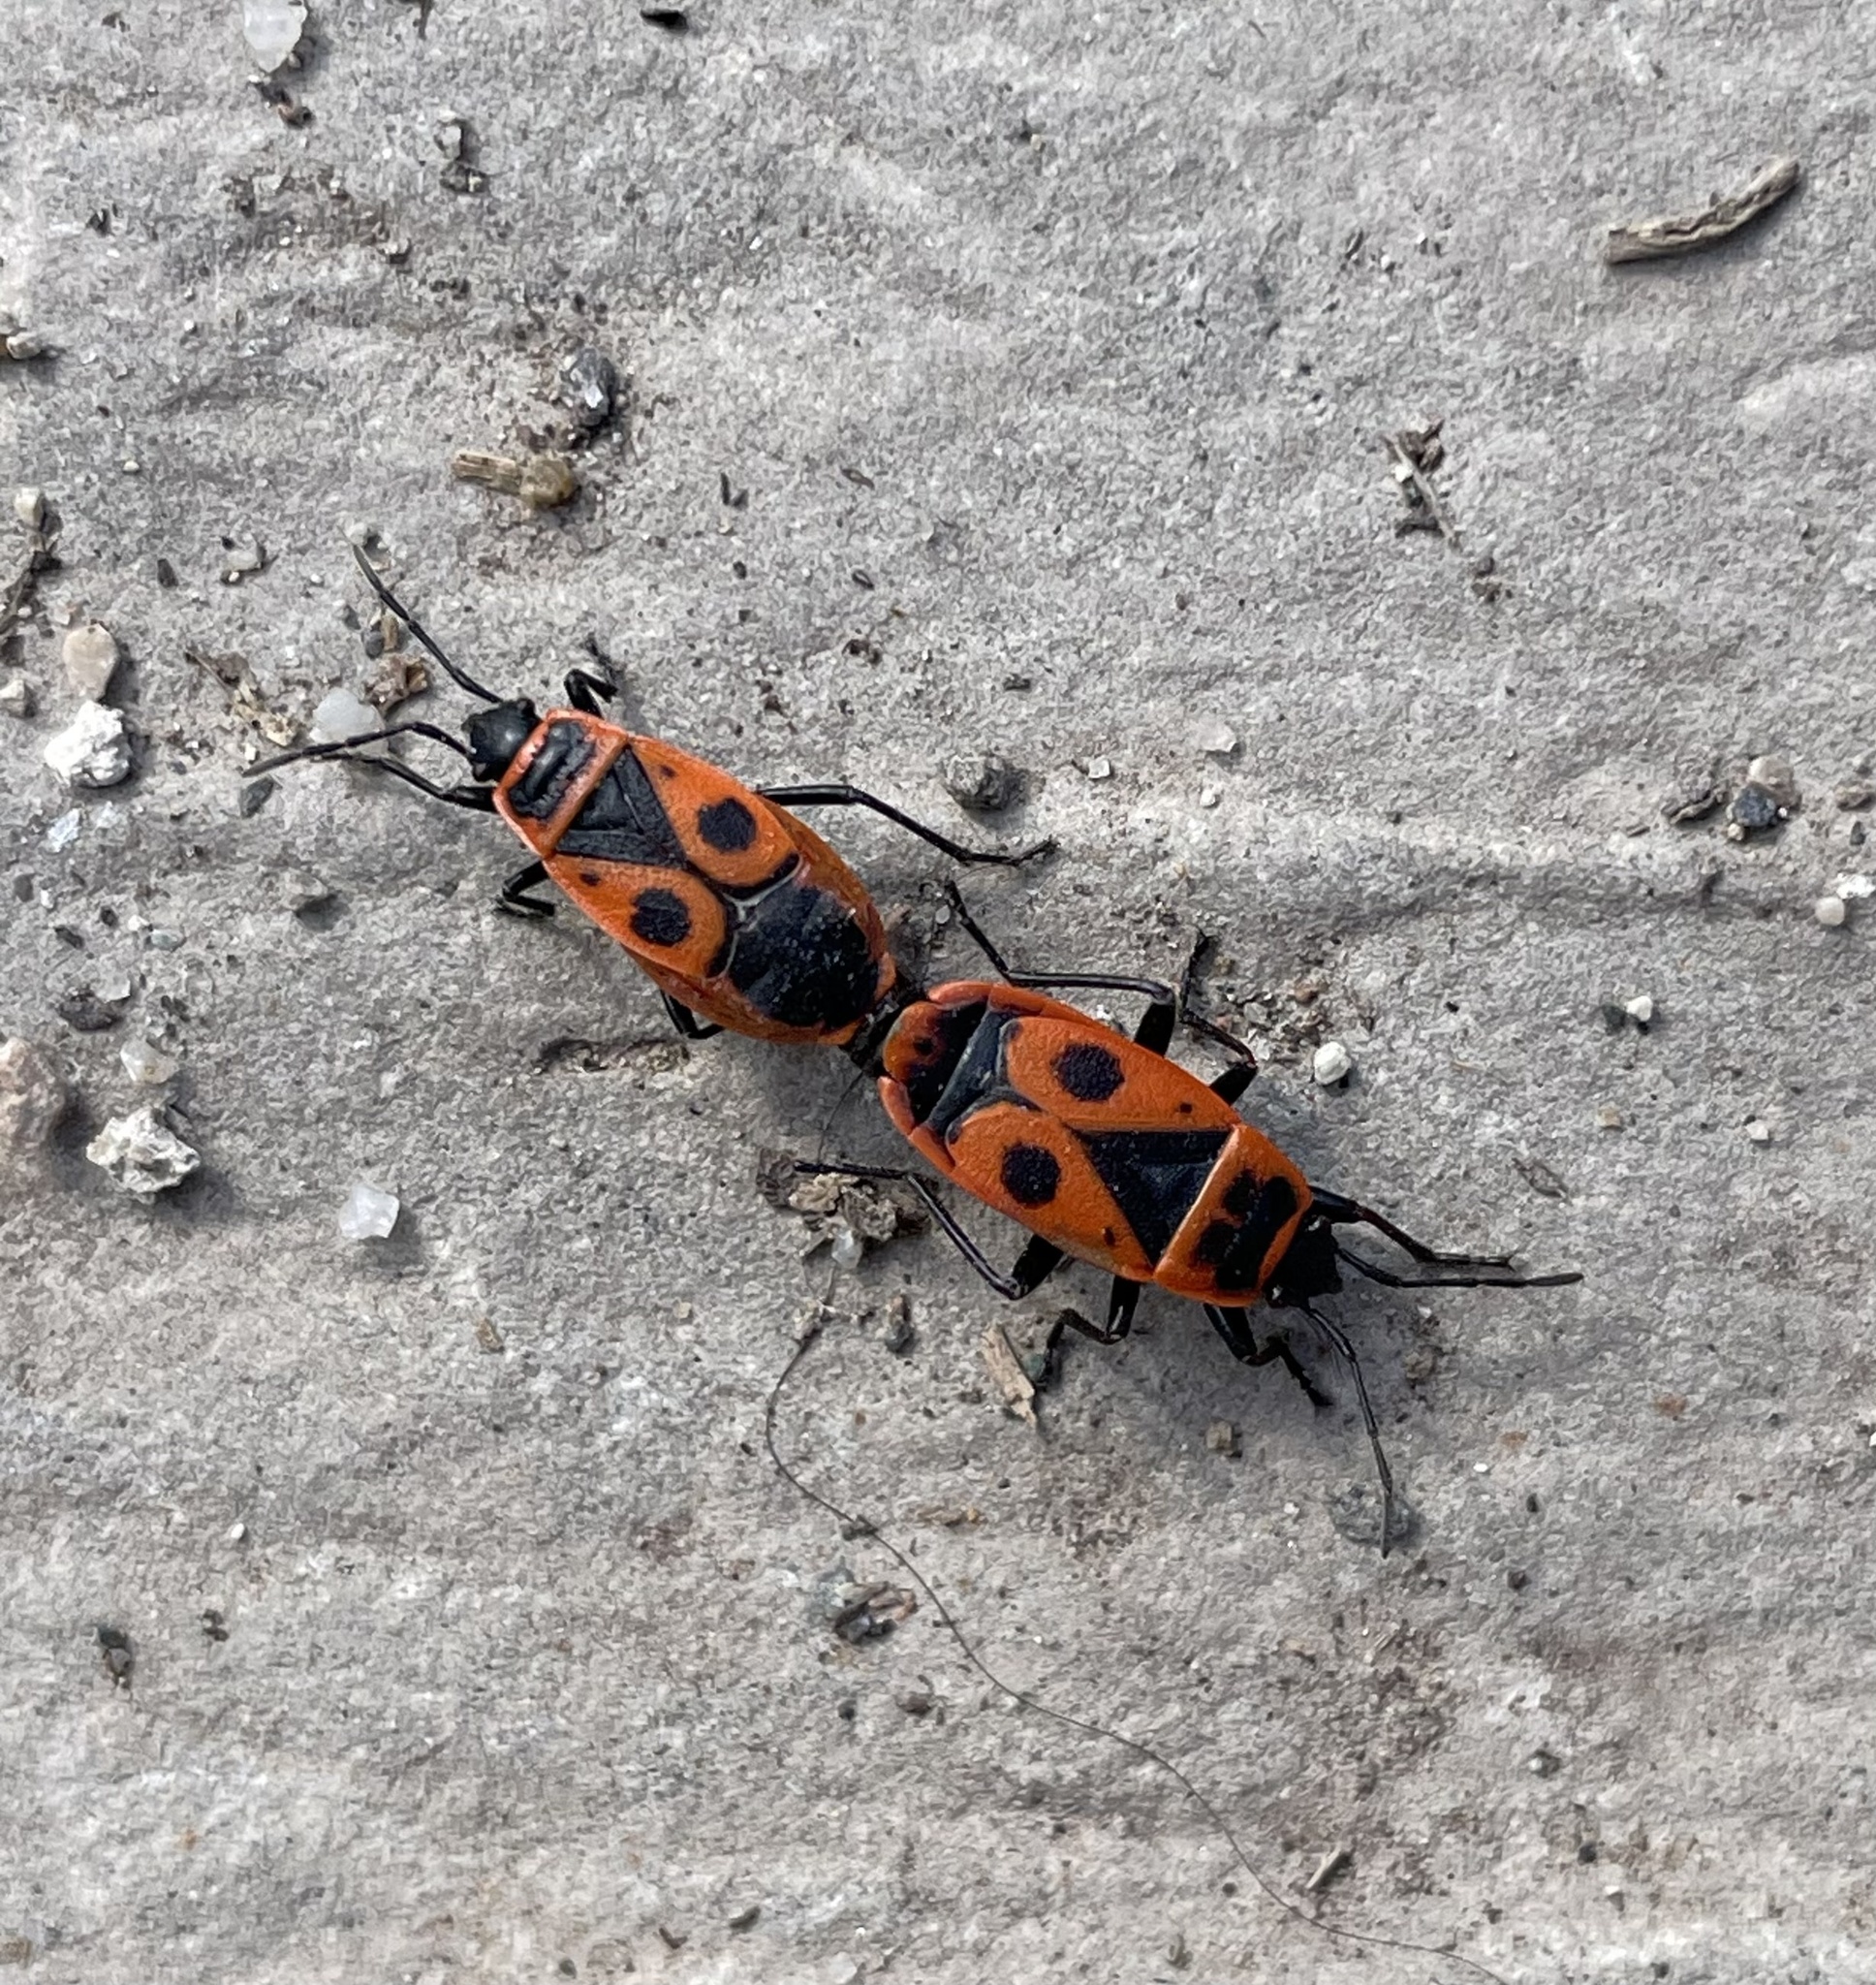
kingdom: Animalia
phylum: Arthropoda
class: Insecta
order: Hemiptera
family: Pyrrhocoridae
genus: Pyrrhocoris
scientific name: Pyrrhocoris apterus
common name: Firebug
